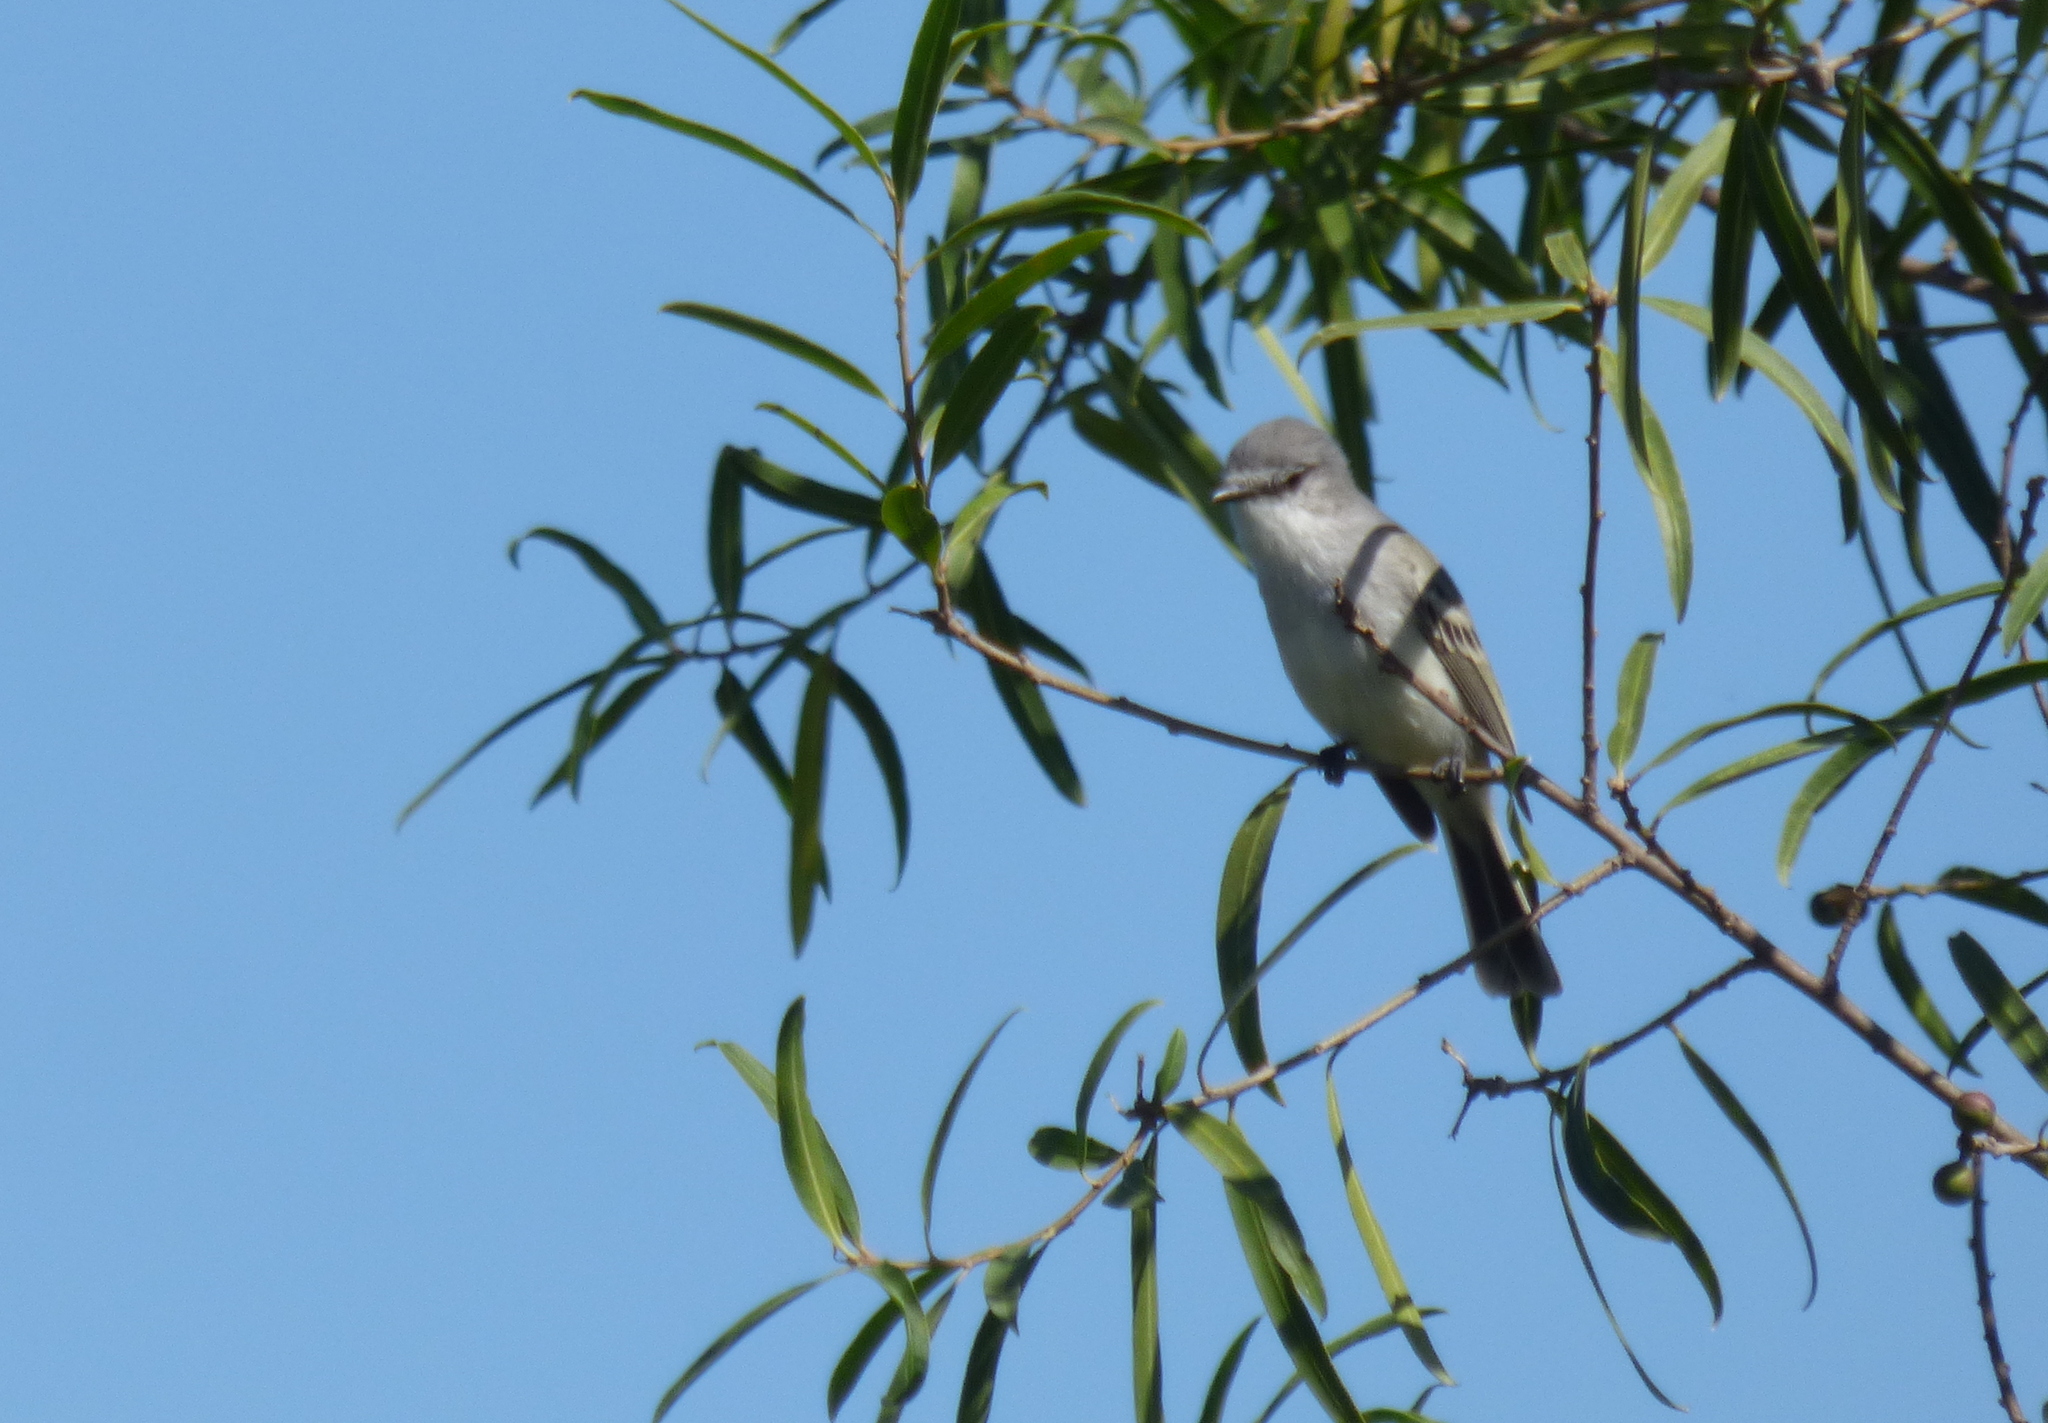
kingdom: Animalia
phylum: Chordata
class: Aves
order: Passeriformes
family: Tyrannidae
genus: Suiriri
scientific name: Suiriri suiriri
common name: Suiriri flycatcher
